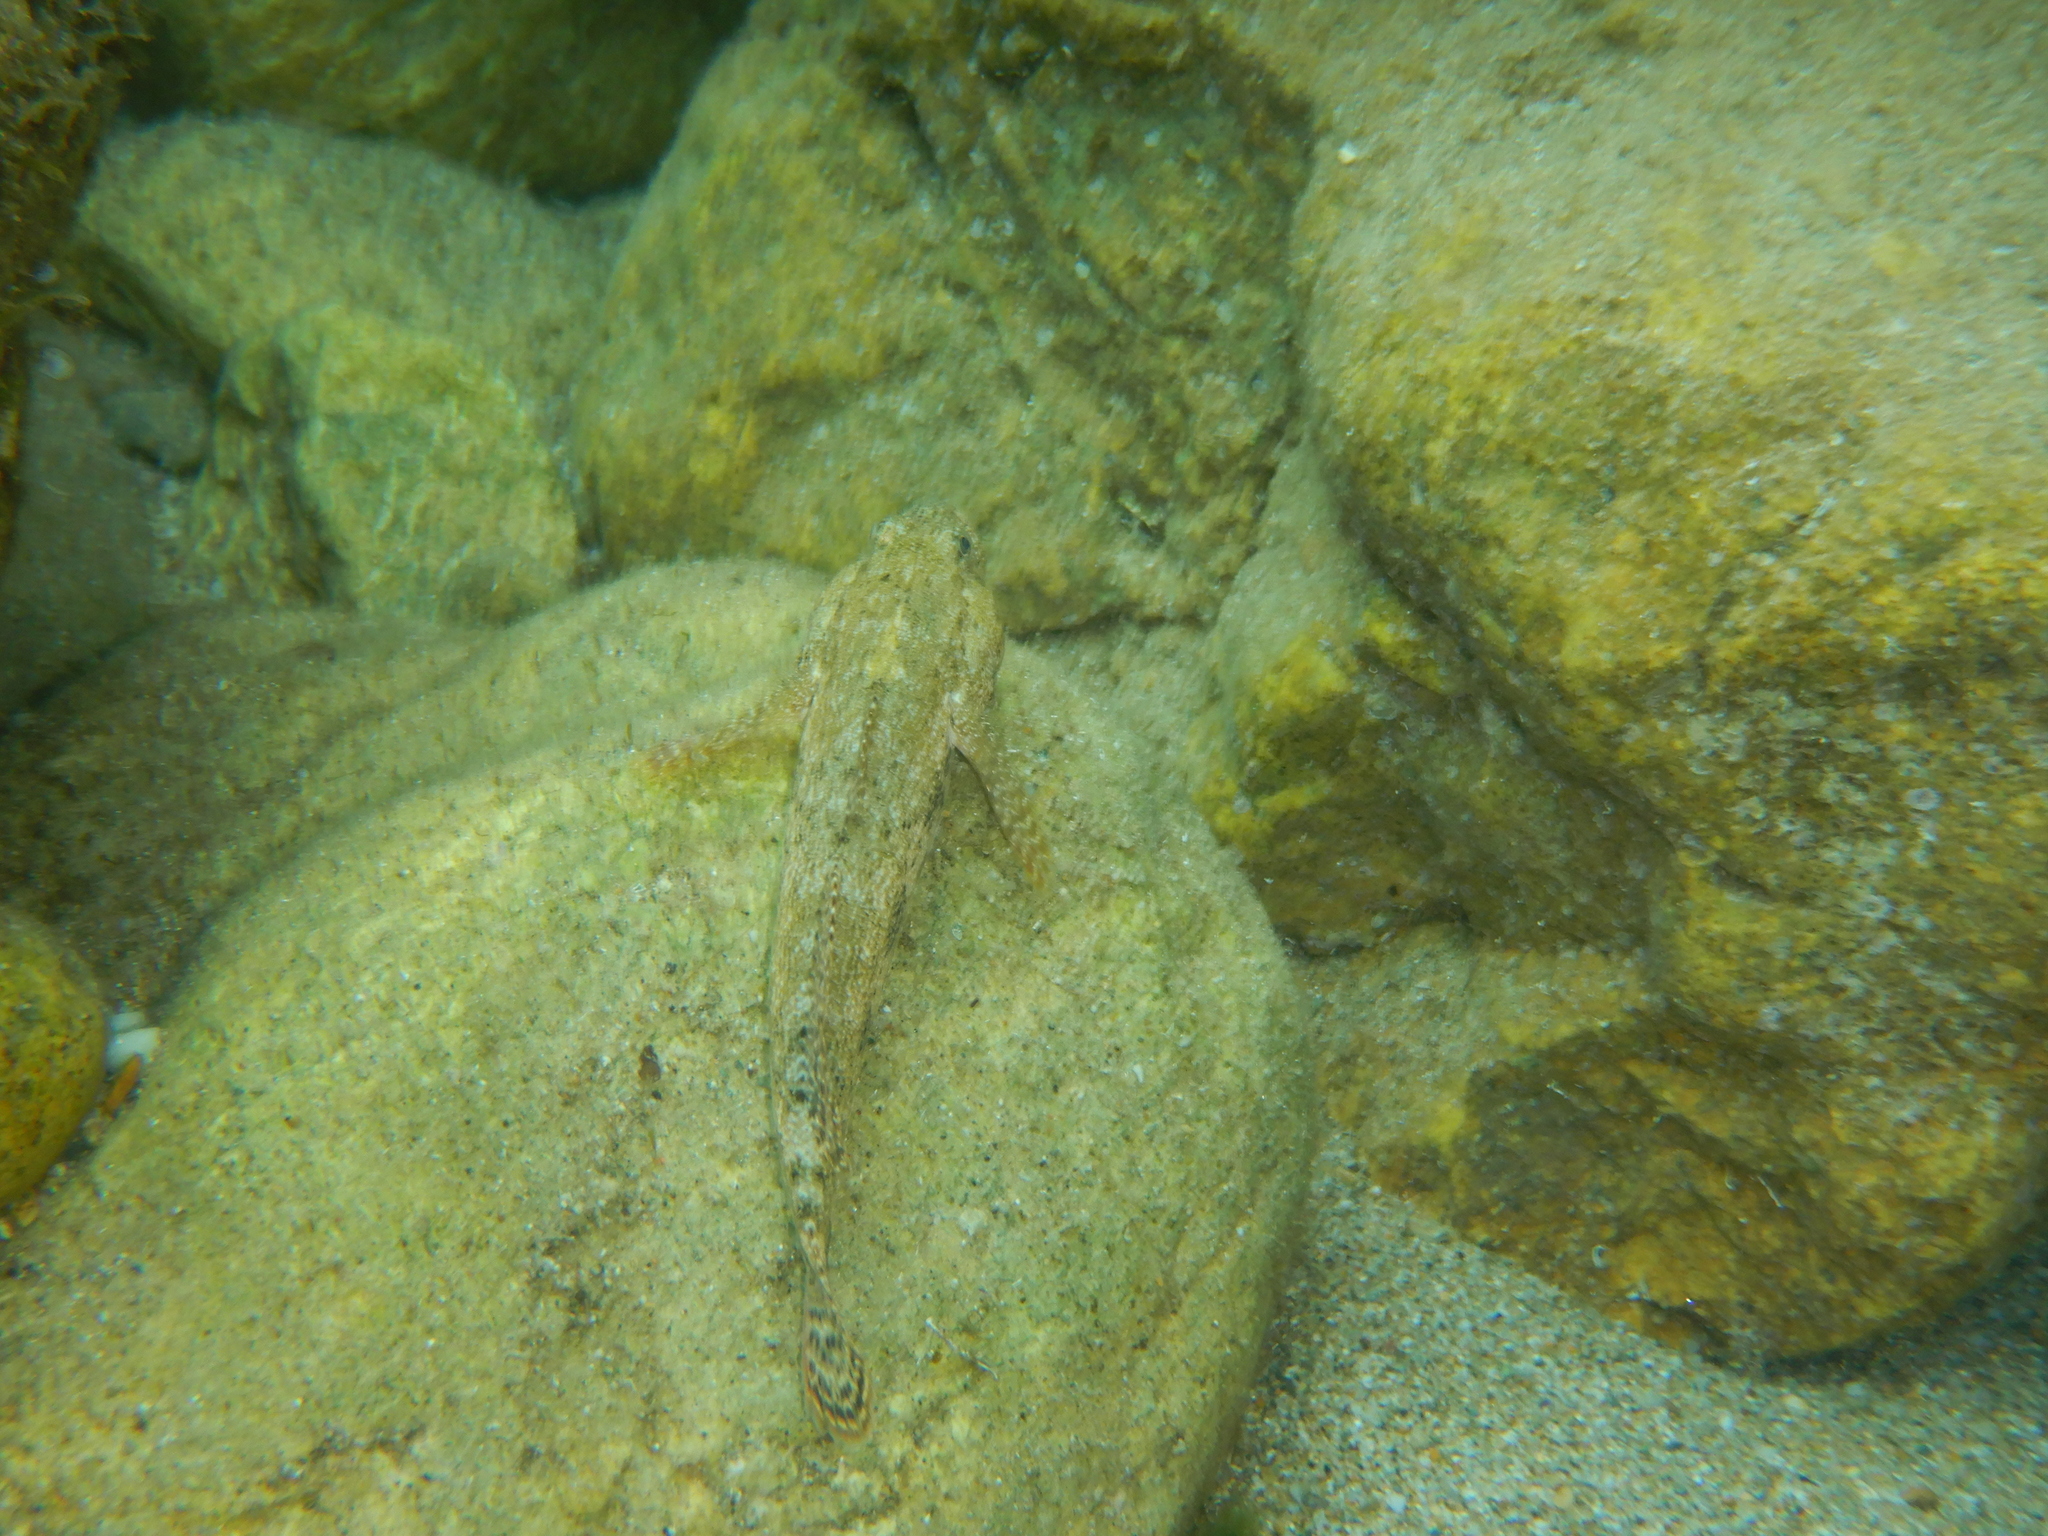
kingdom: Animalia
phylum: Chordata
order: Perciformes
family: Gobiidae
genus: Gobius
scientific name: Gobius cobitis
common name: Giant goby
